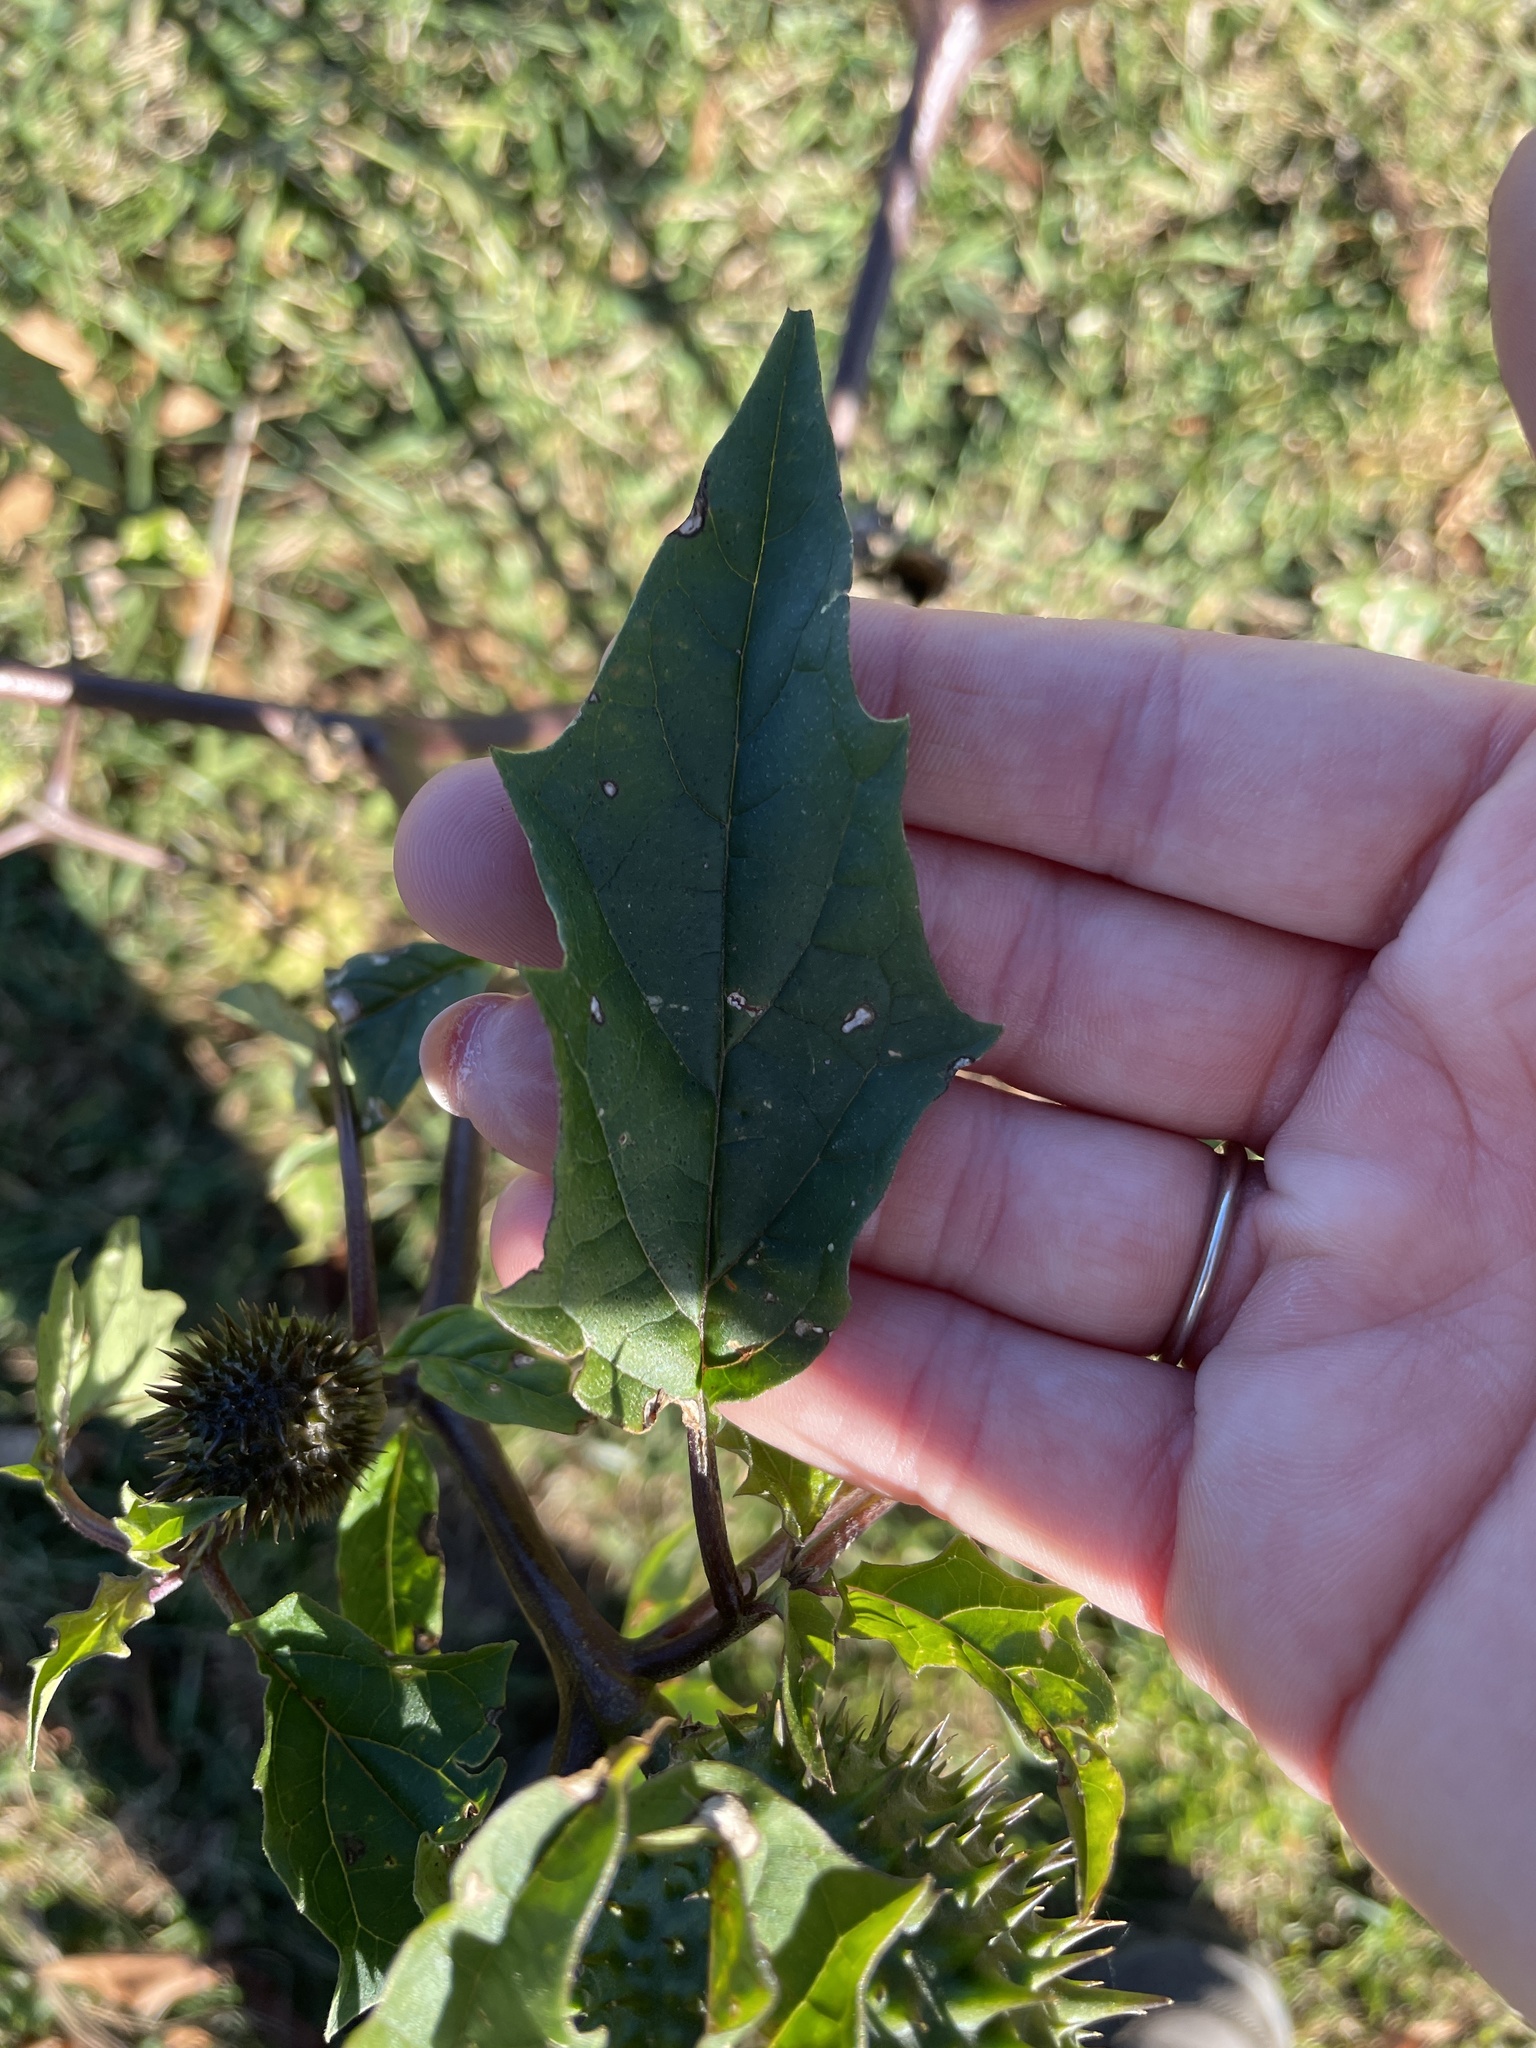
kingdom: Plantae
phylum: Tracheophyta
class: Magnoliopsida
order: Solanales
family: Solanaceae
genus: Datura
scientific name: Datura stramonium
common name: Thorn-apple
